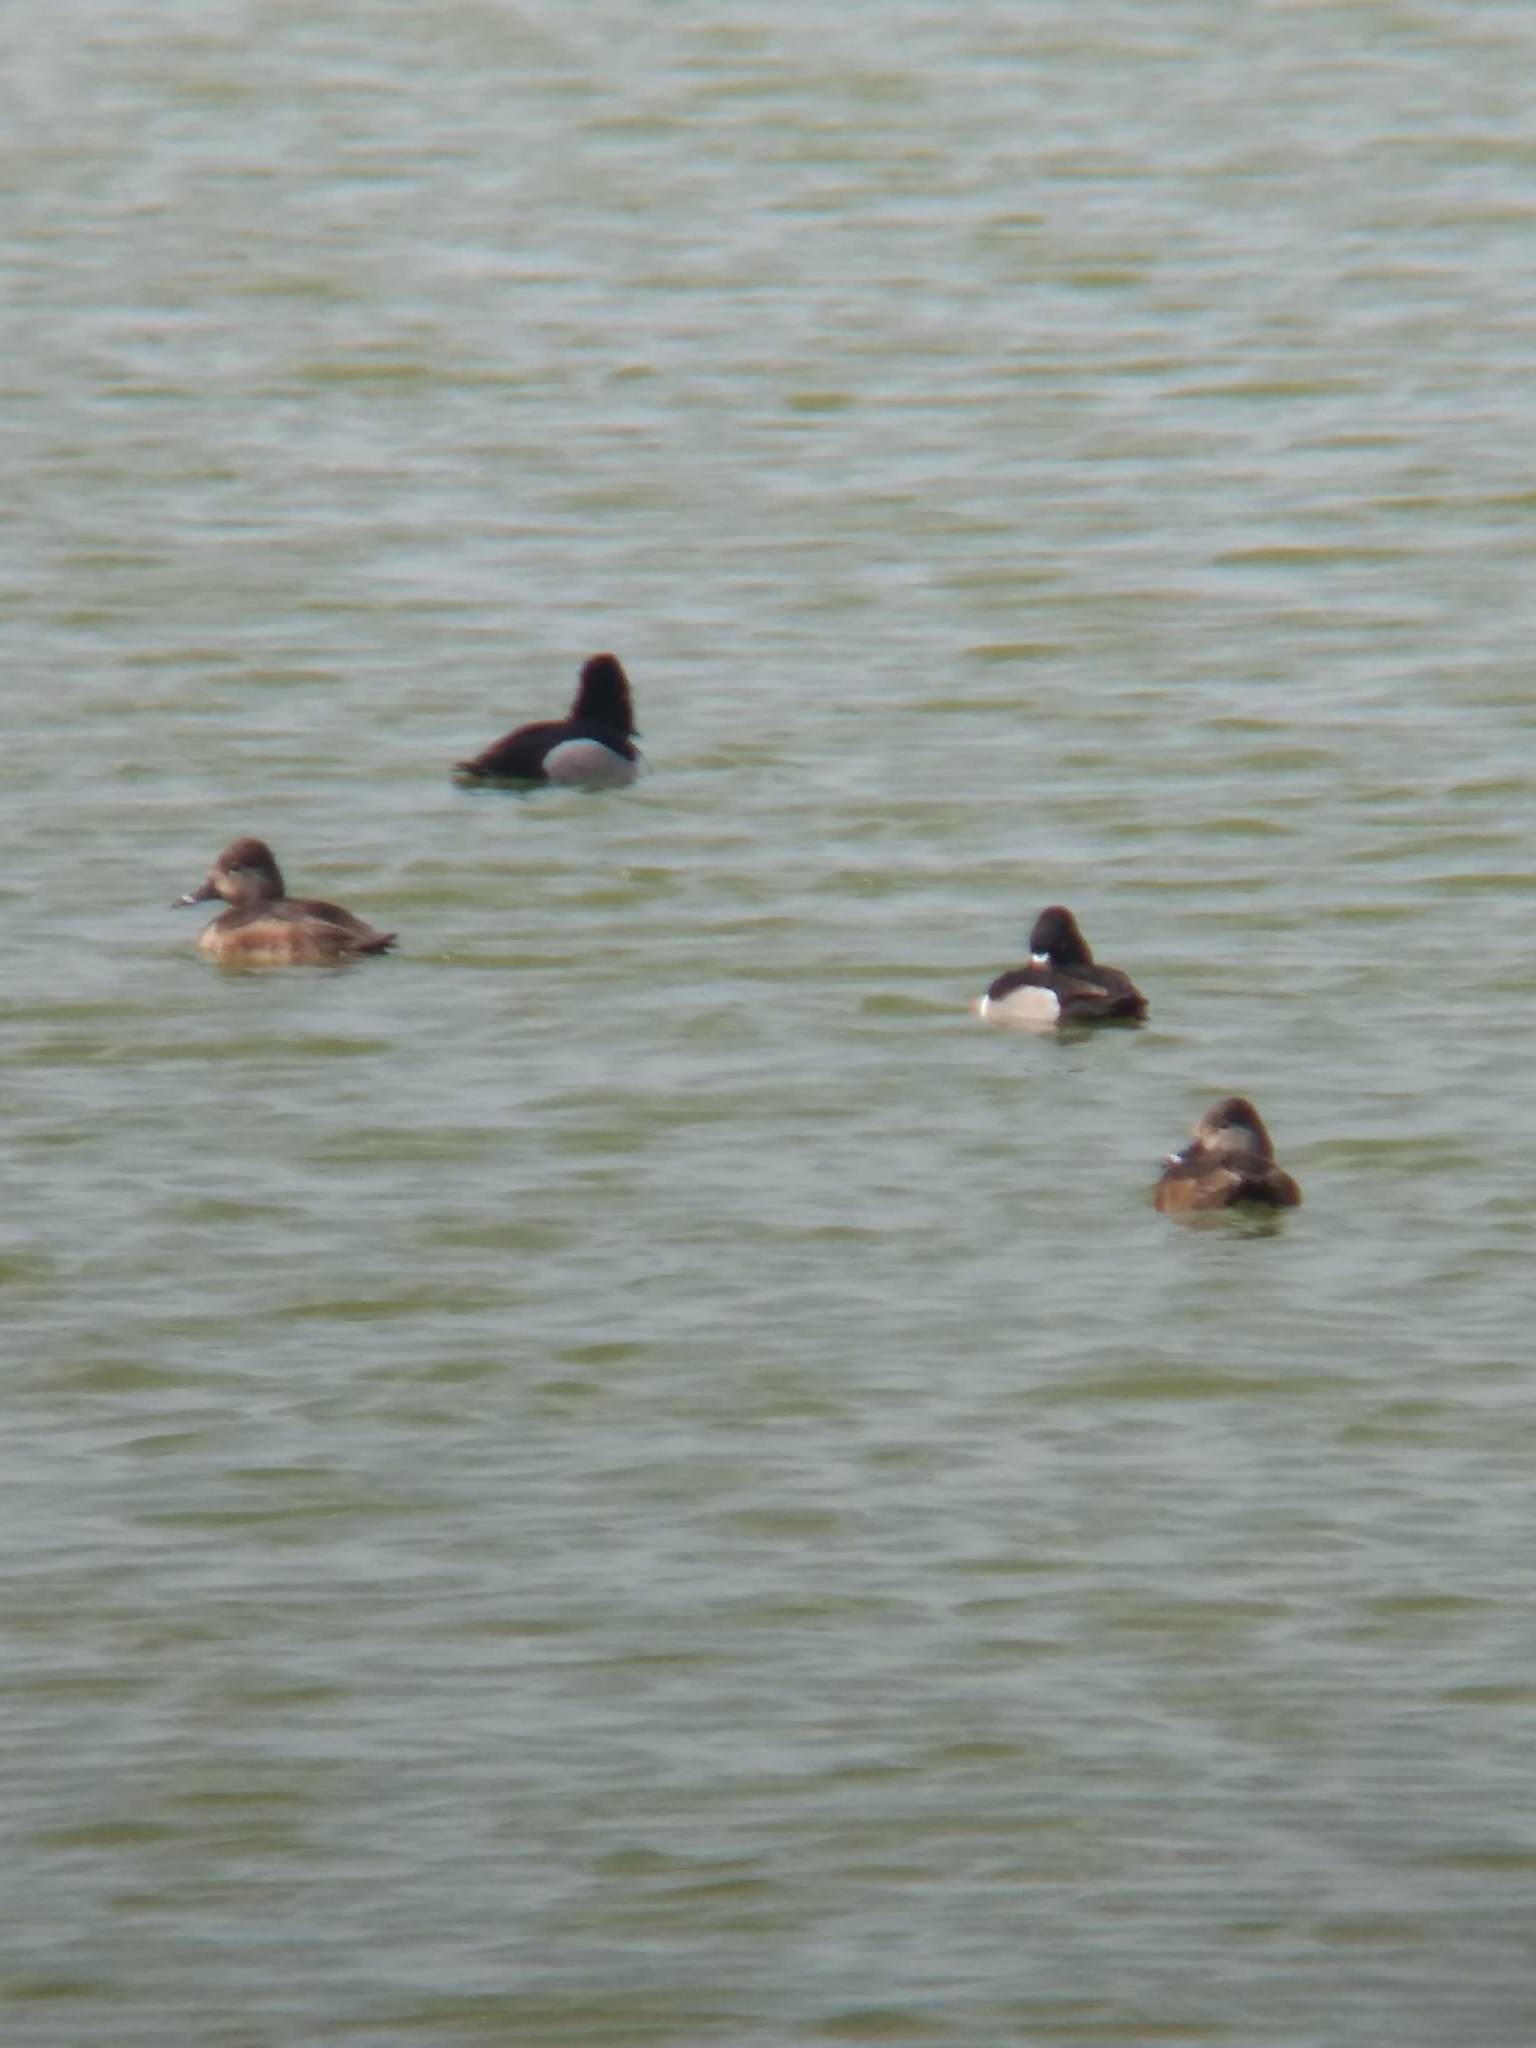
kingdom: Animalia
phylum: Chordata
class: Aves
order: Anseriformes
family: Anatidae
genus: Aythya
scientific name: Aythya collaris
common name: Ring-necked duck
